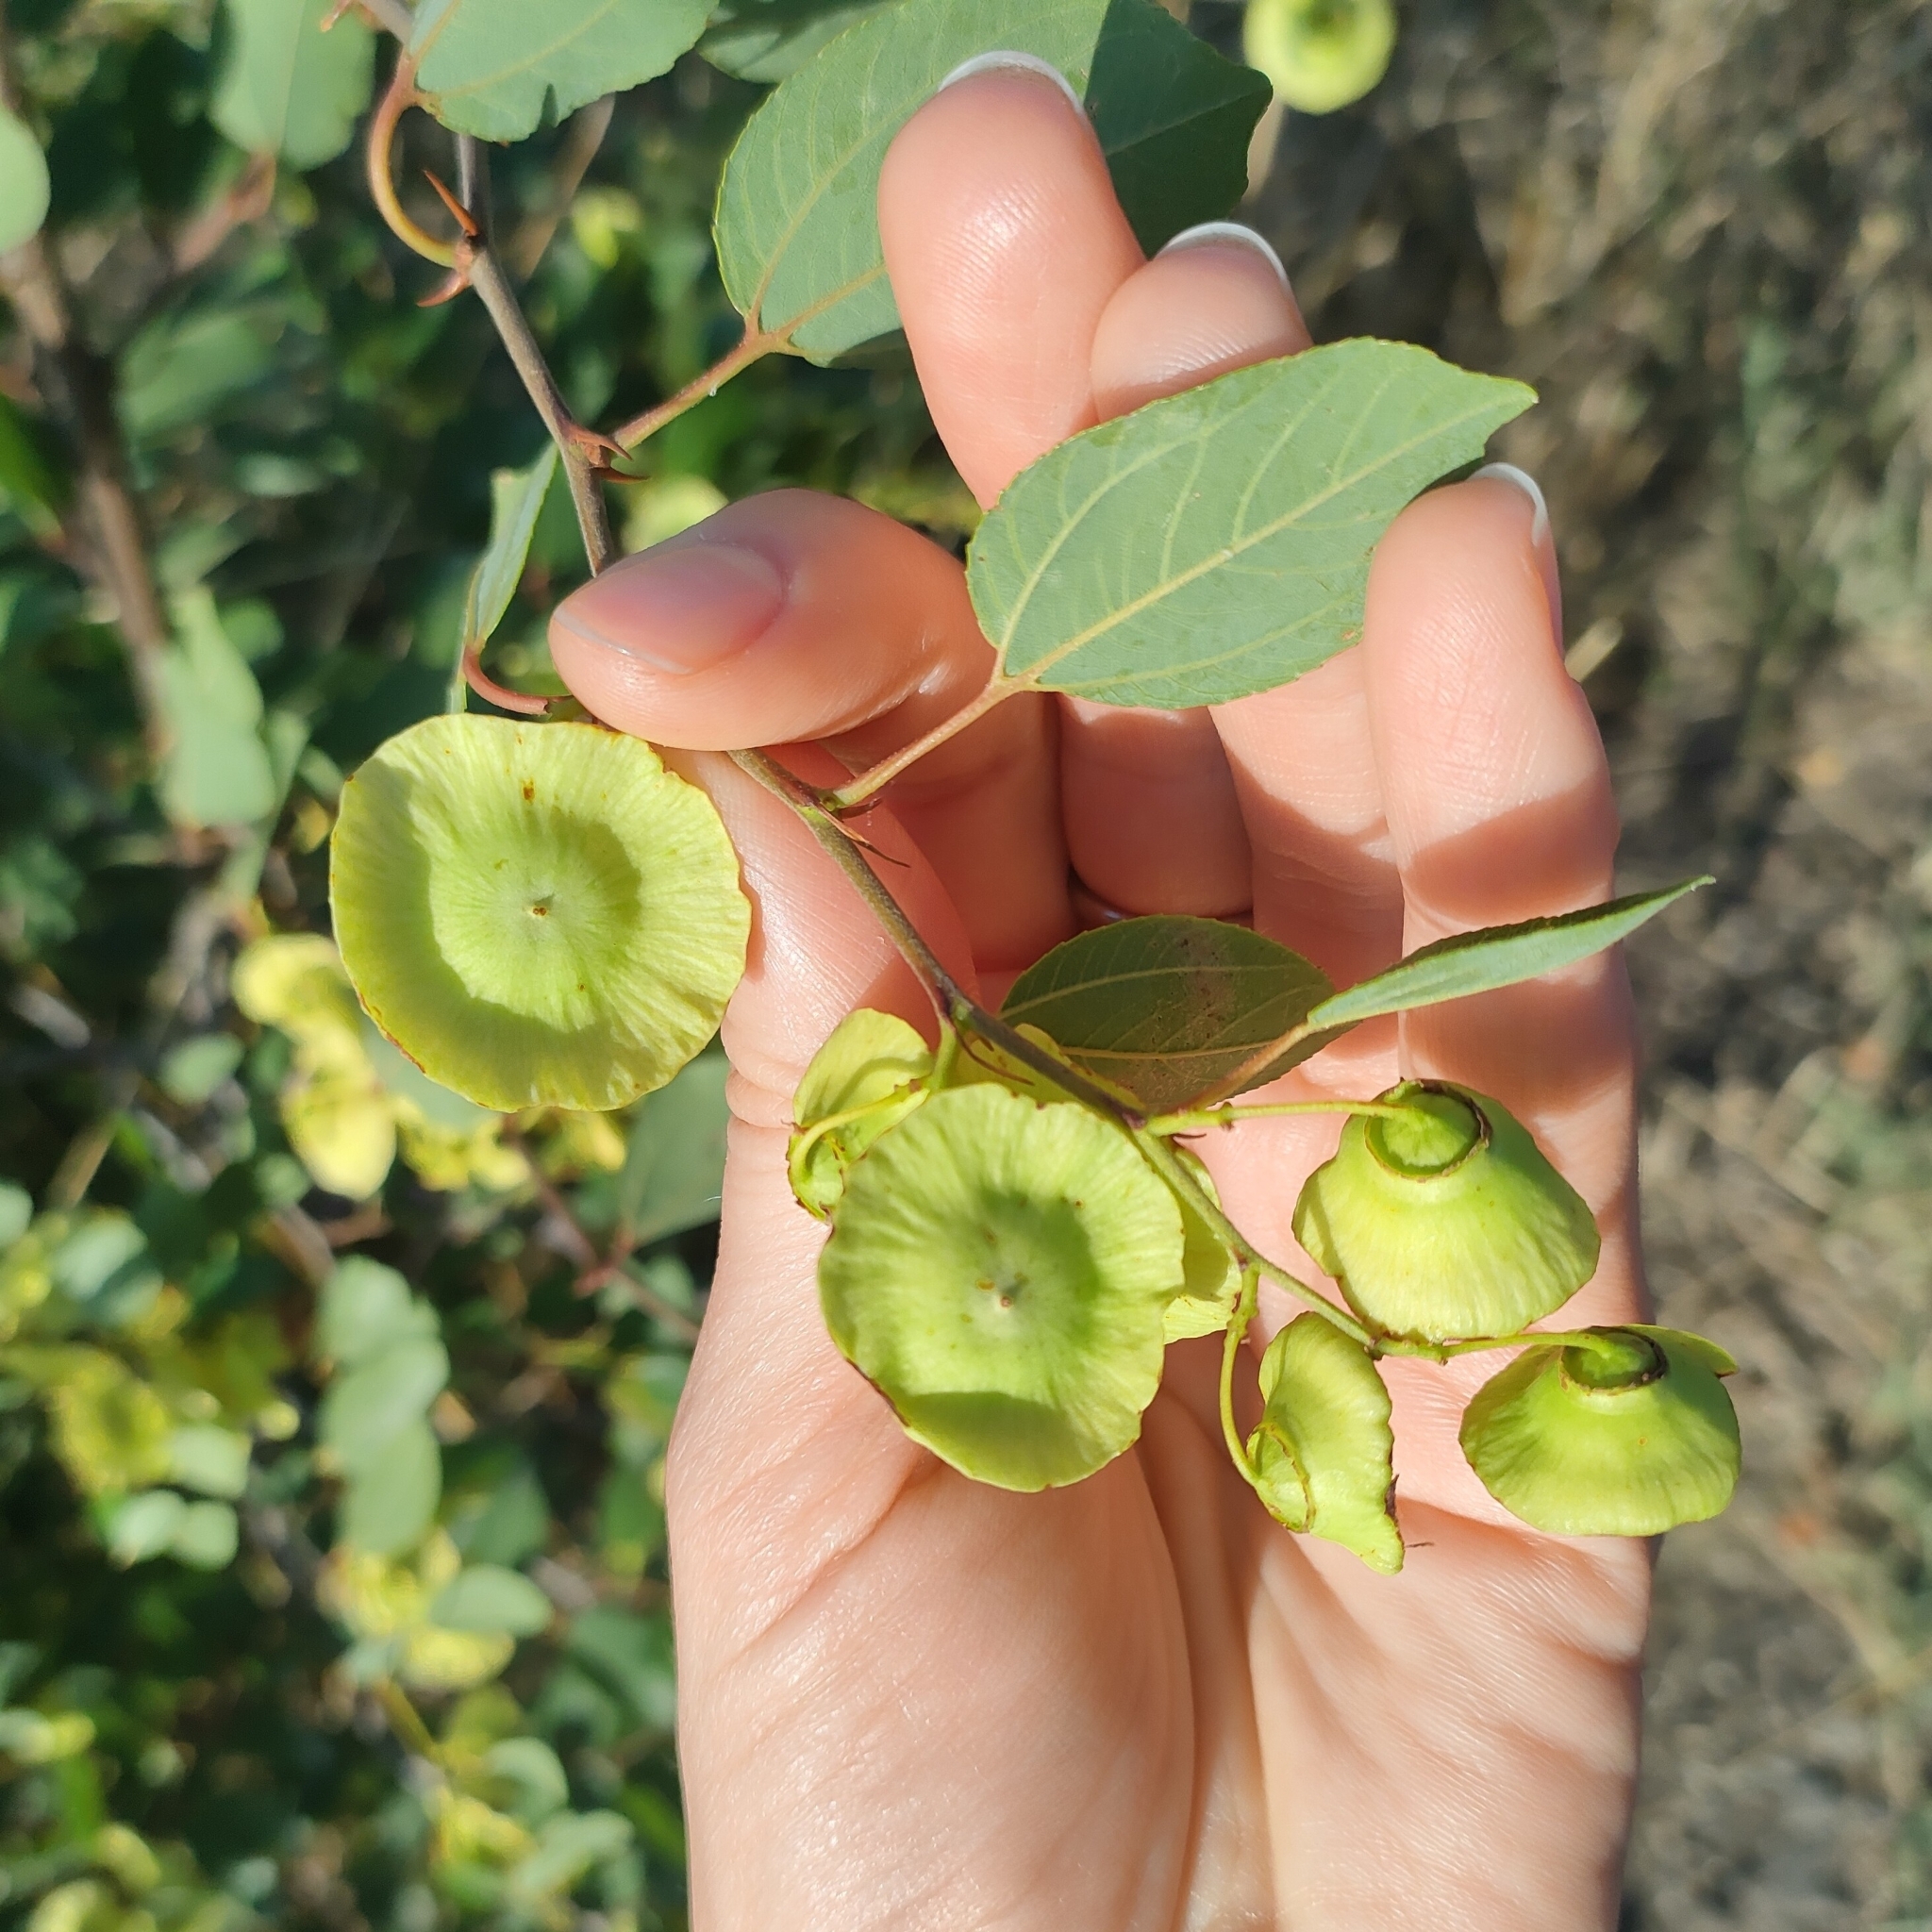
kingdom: Plantae
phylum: Tracheophyta
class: Magnoliopsida
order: Rosales
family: Rhamnaceae
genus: Paliurus
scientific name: Paliurus spina-christi
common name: Jeruselem thorn
